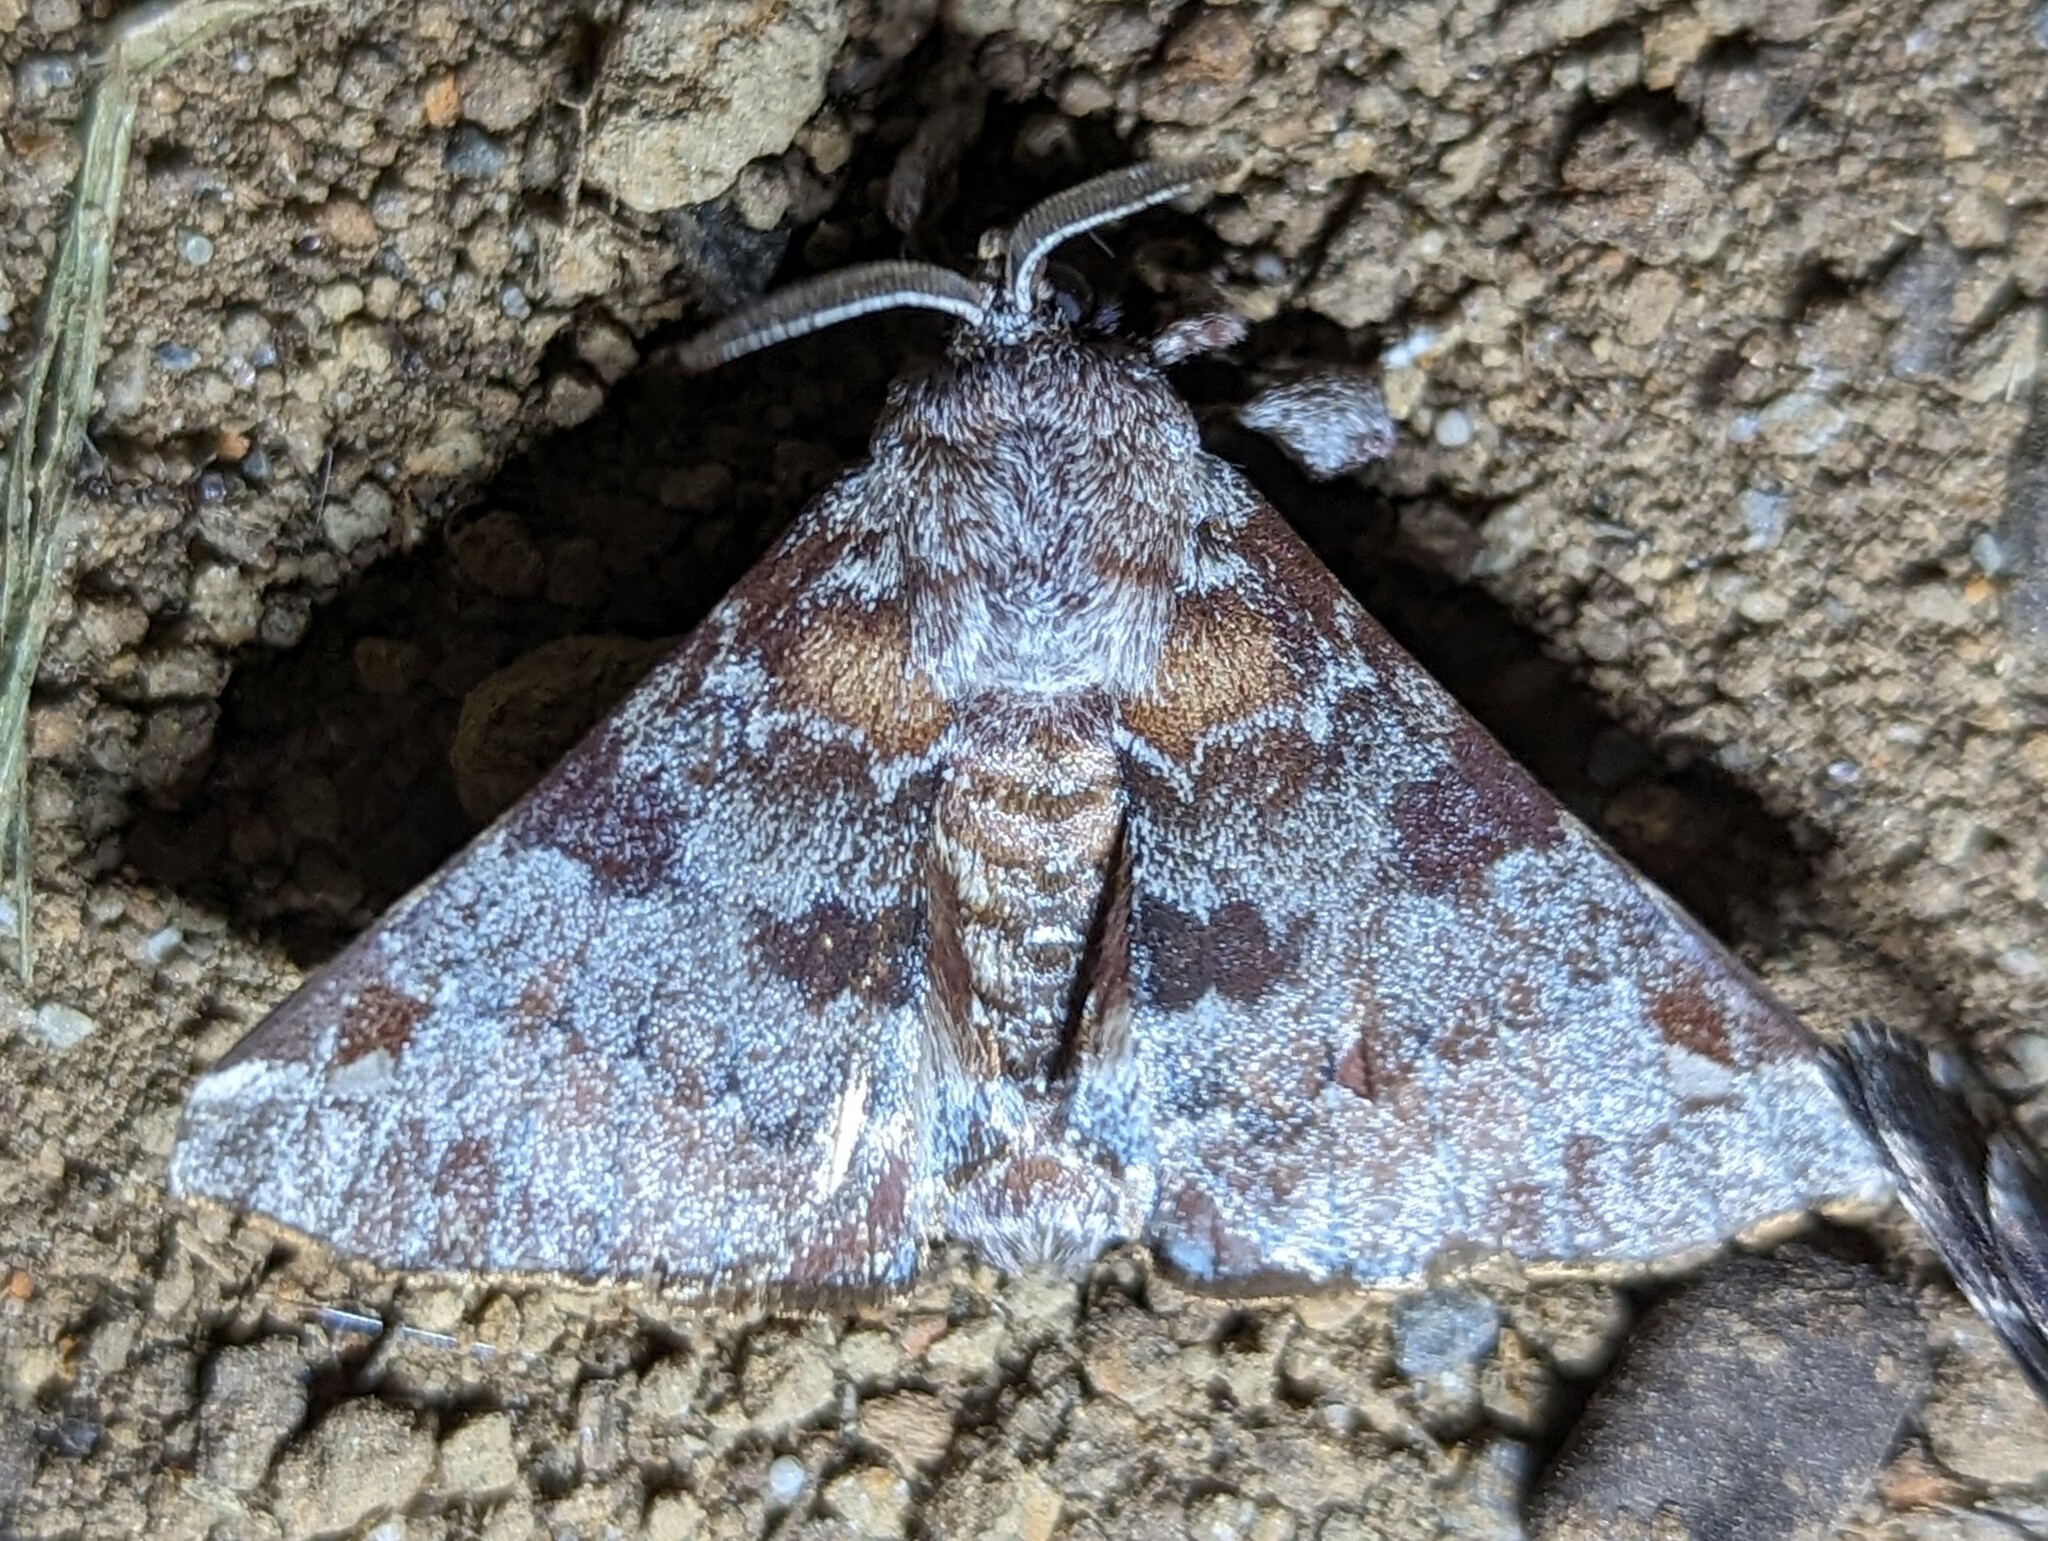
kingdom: Animalia
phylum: Arthropoda
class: Insecta
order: Lepidoptera
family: Apatelodidae
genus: Hygrochroa
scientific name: Hygrochroa nina
